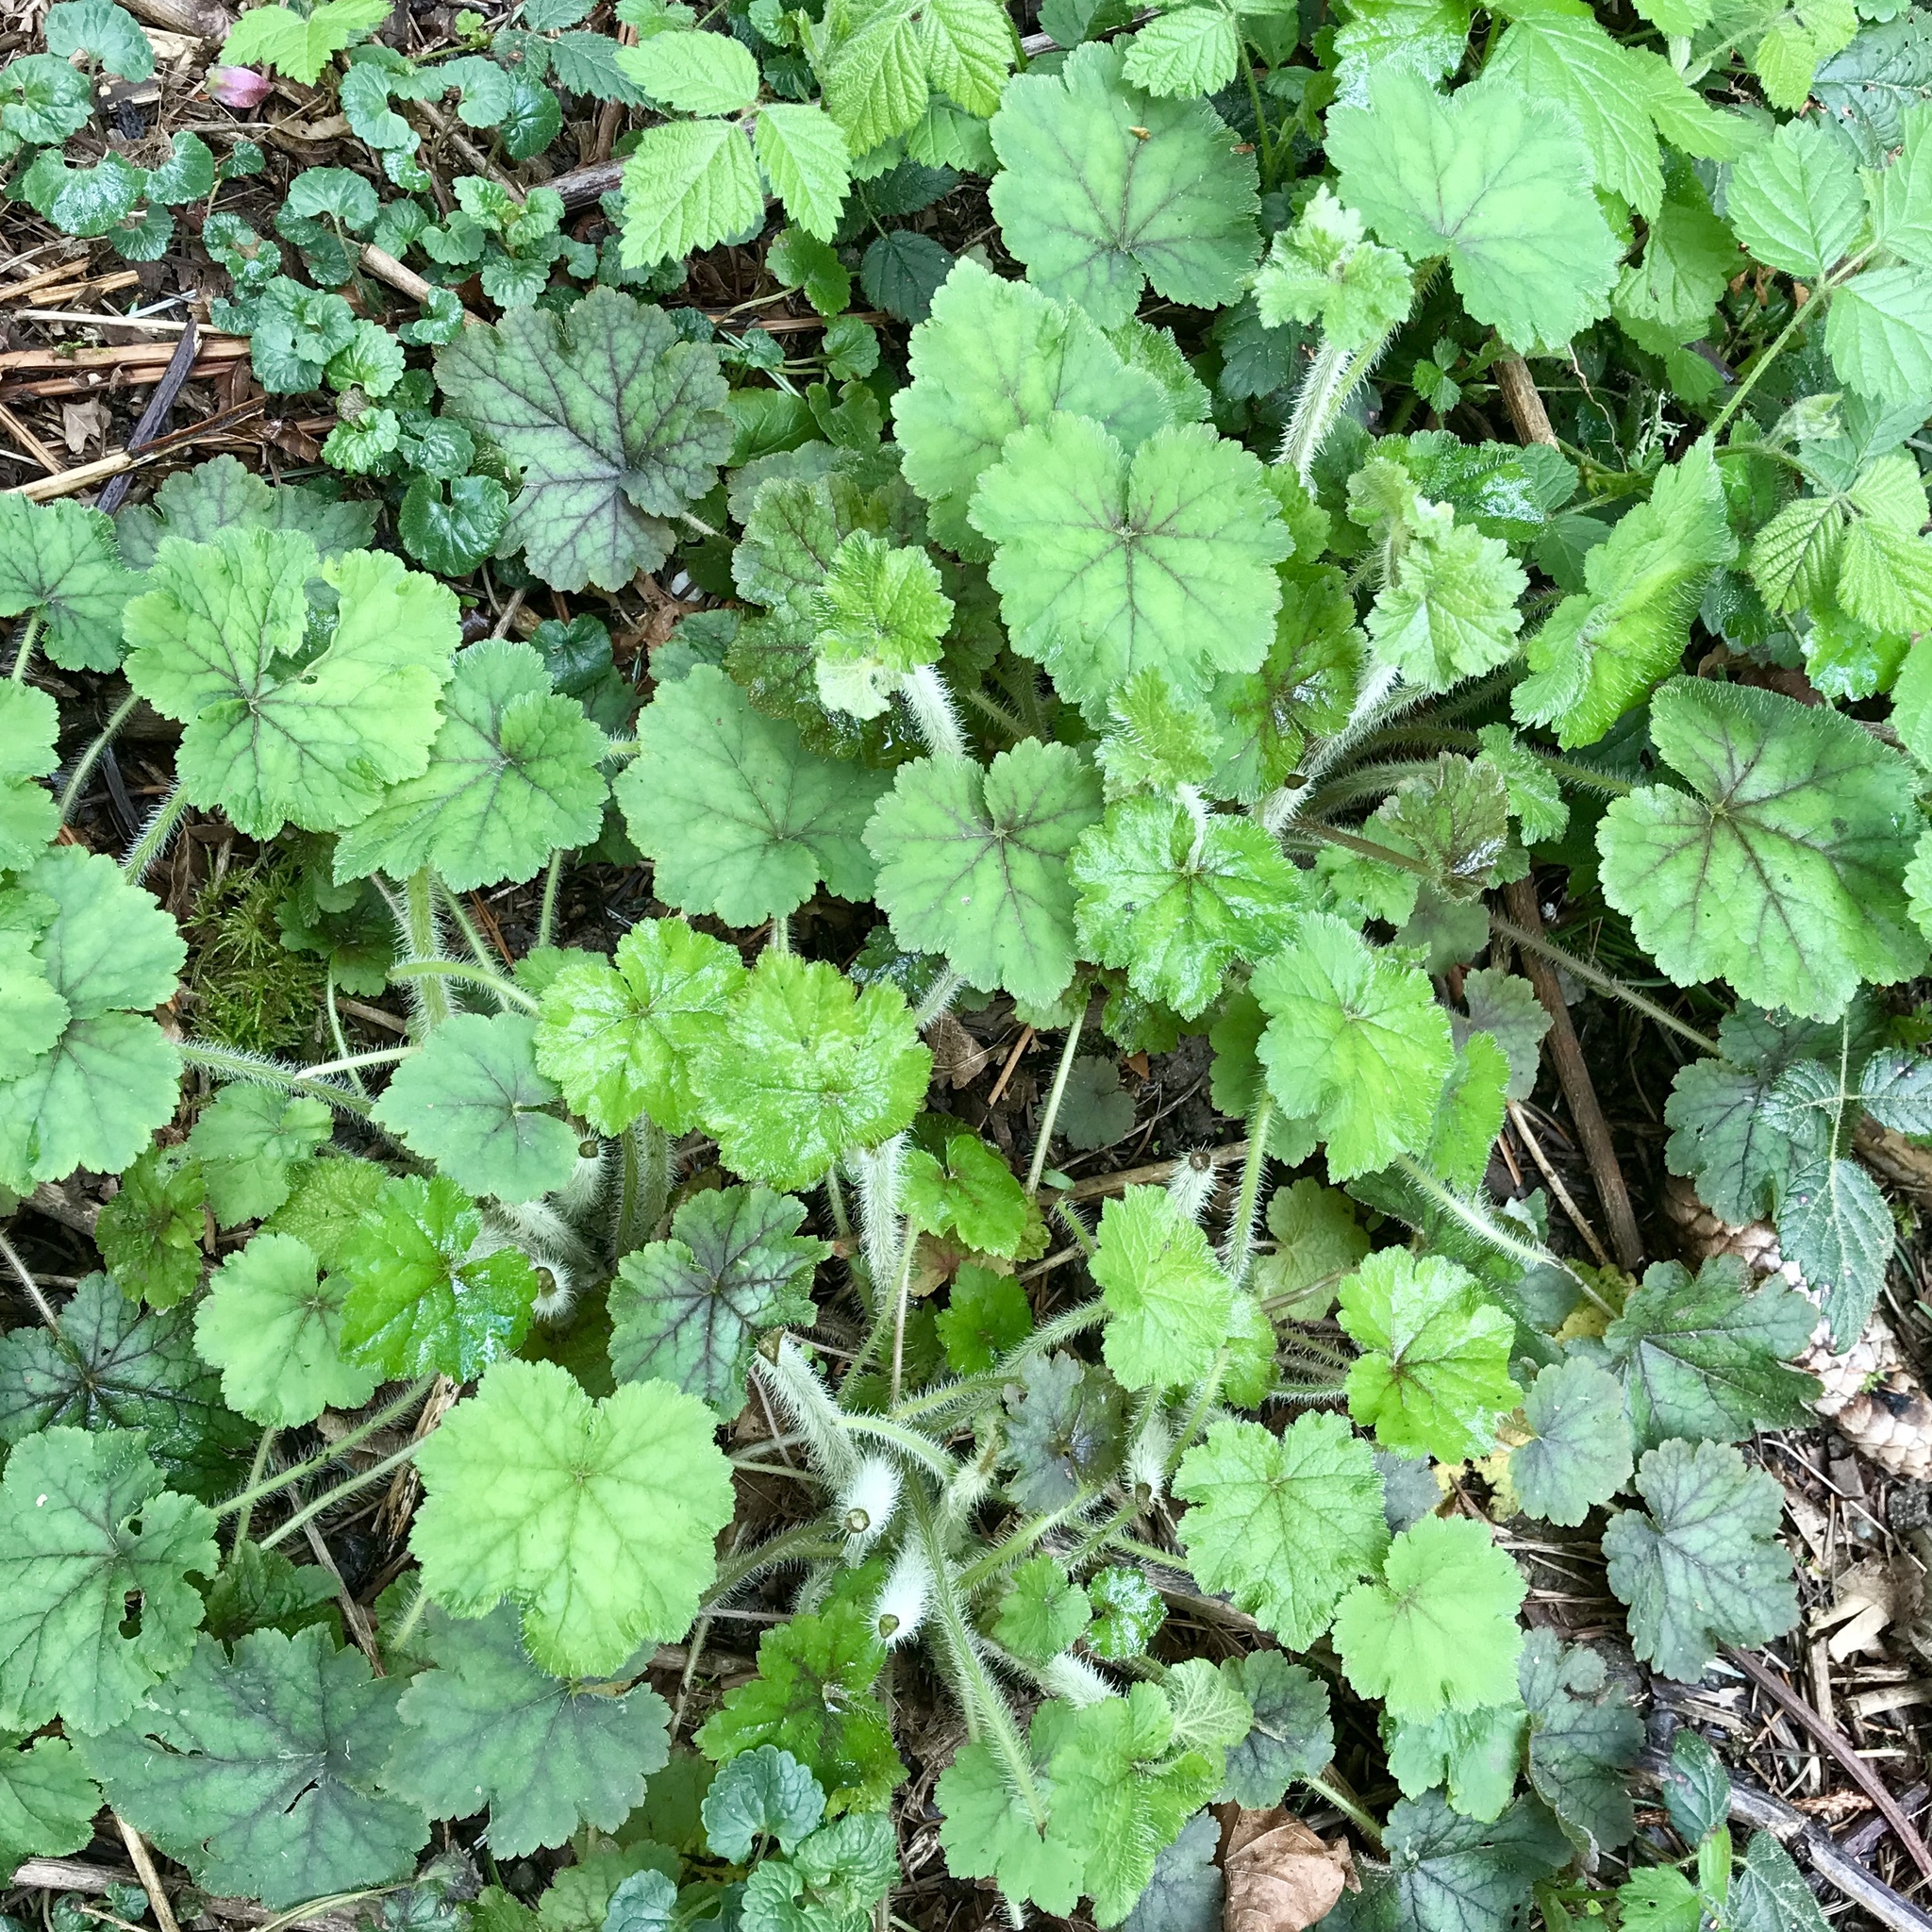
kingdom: Plantae
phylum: Tracheophyta
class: Magnoliopsida
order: Saxifragales
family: Saxifragaceae
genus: Tellima
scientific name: Tellima grandiflora
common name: Fringecups
